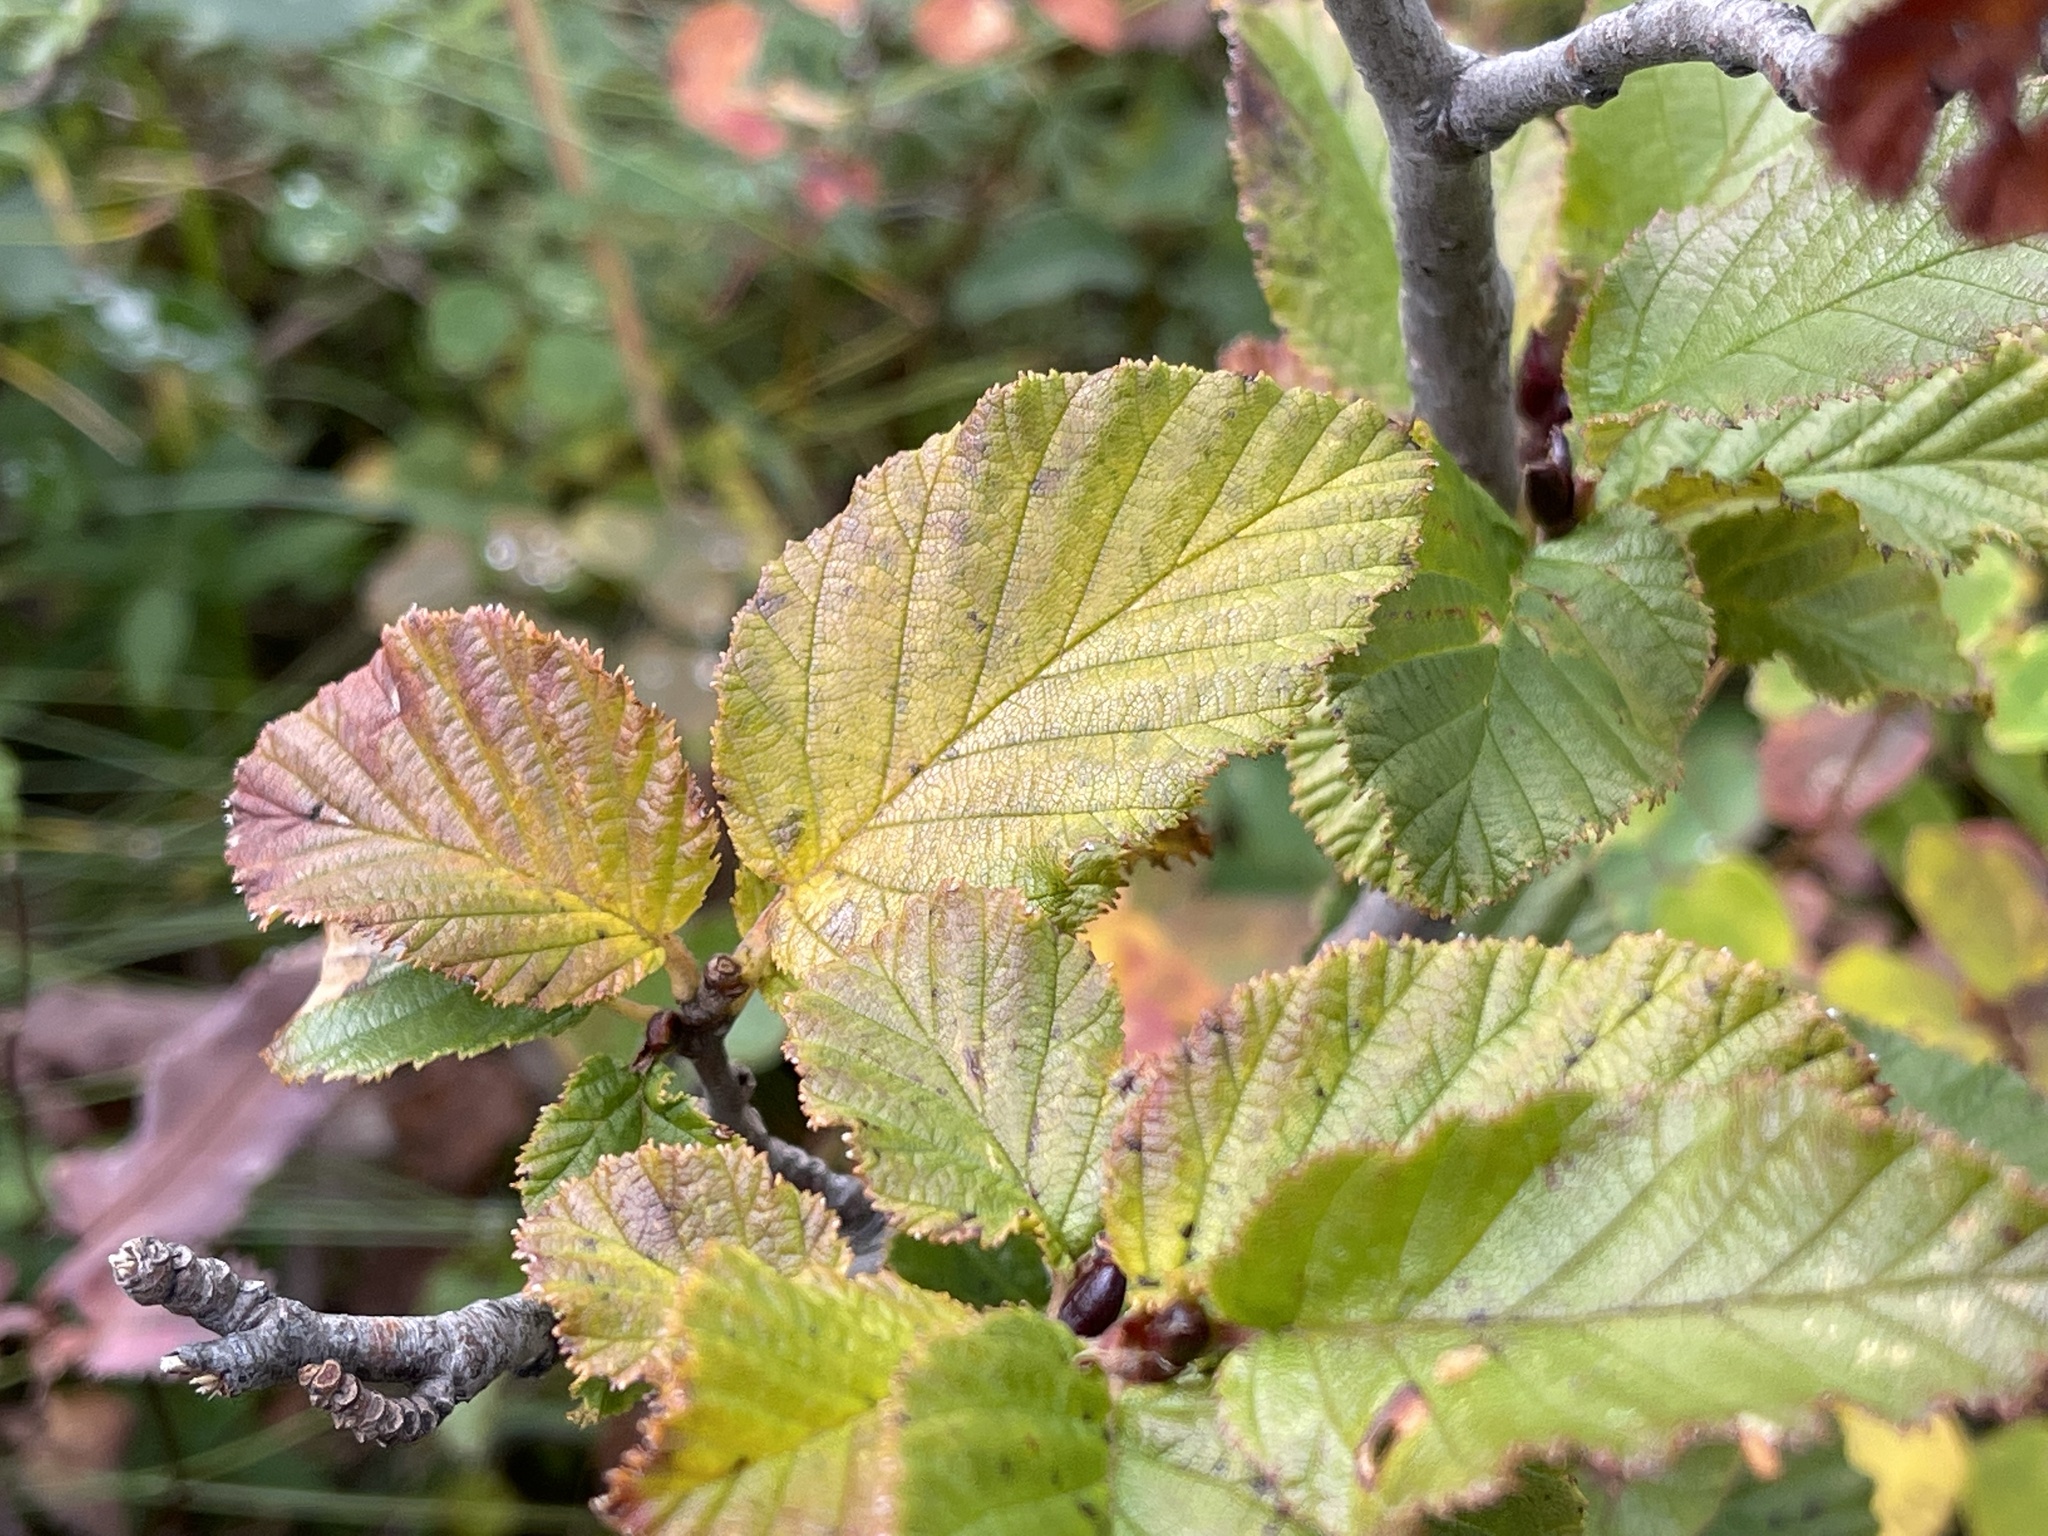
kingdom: Plantae
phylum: Tracheophyta
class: Magnoliopsida
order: Fagales
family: Betulaceae
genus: Alnus
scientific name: Alnus alnobetula
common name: Green alder
